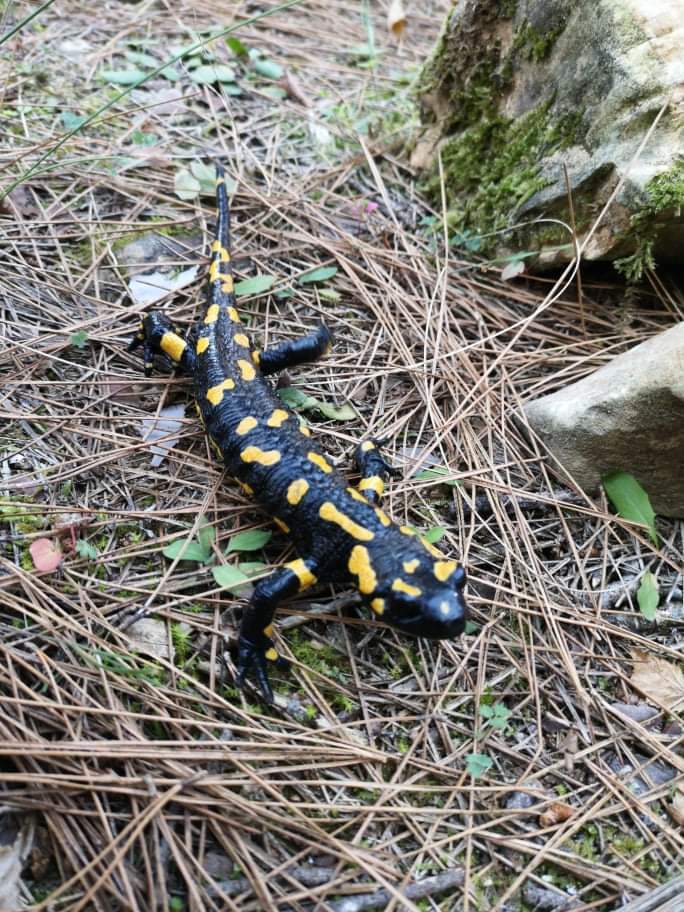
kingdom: Animalia
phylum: Chordata
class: Amphibia
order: Caudata
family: Salamandridae
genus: Salamandra
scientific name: Salamandra salamandra
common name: Fire salamander
